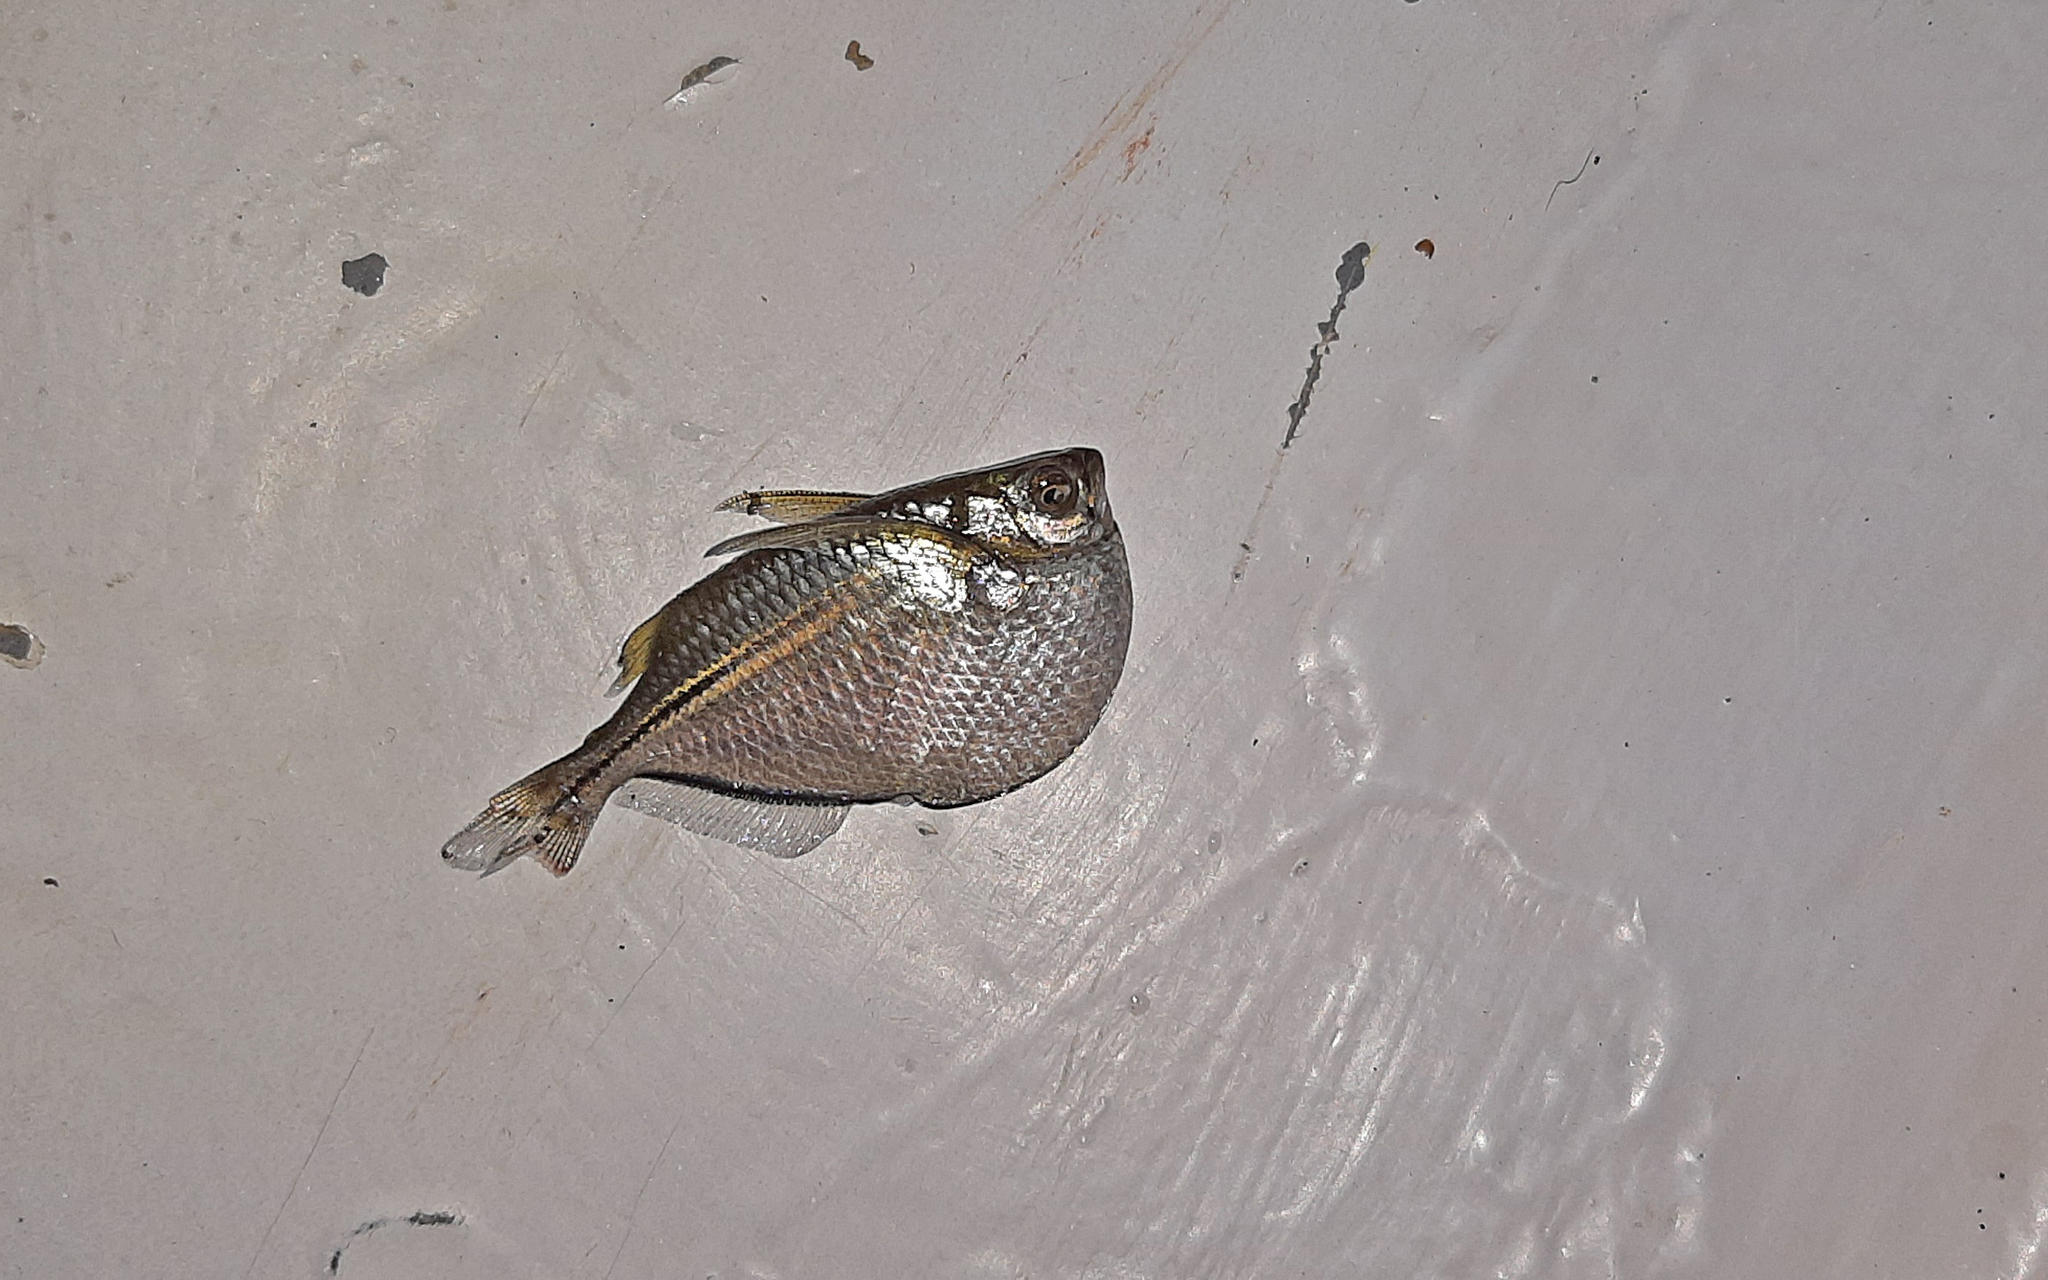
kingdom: Animalia
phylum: Chordata
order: Characiformes
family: Gasteropelecidae
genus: Gasteropelecus
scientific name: Gasteropelecus sternicla
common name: Common hatchetfish
